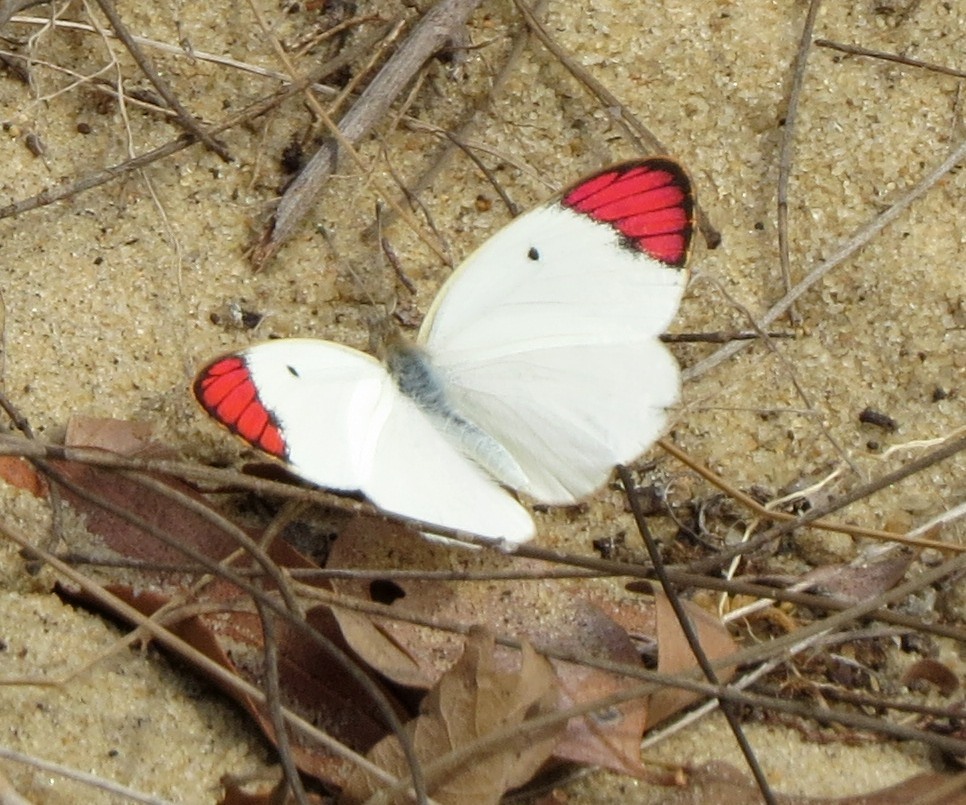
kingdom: Animalia
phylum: Arthropoda
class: Insecta
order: Lepidoptera
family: Pieridae
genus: Colotis
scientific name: Colotis guenei
